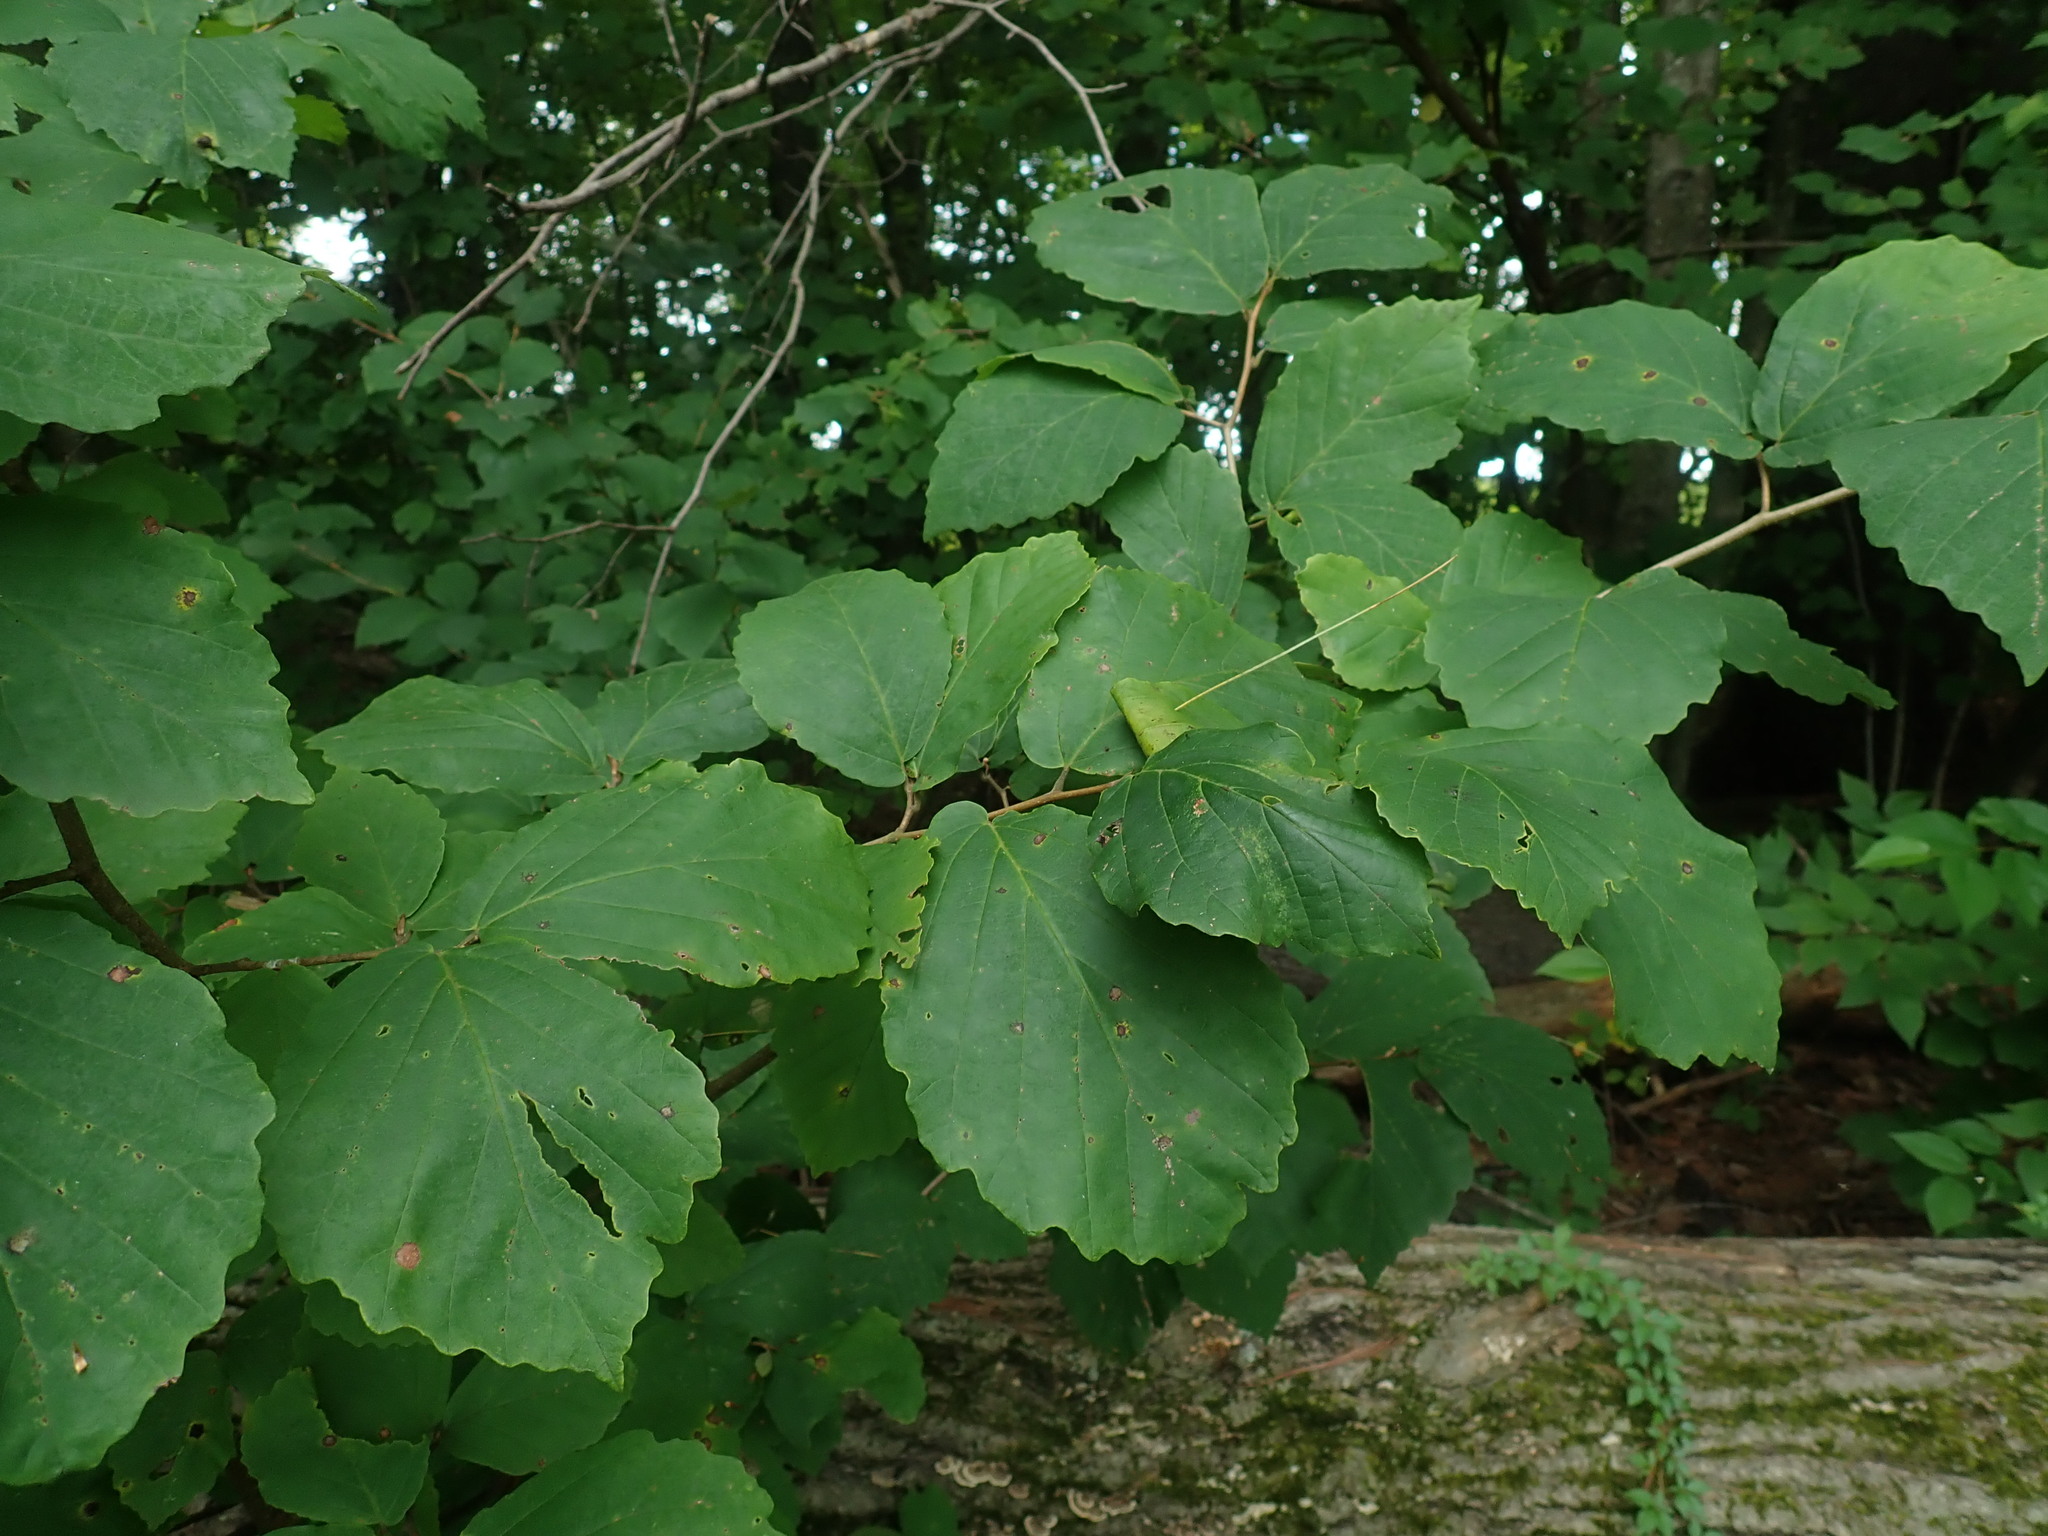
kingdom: Plantae
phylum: Tracheophyta
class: Magnoliopsida
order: Saxifragales
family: Hamamelidaceae
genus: Hamamelis
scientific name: Hamamelis virginiana
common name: Witch-hazel
